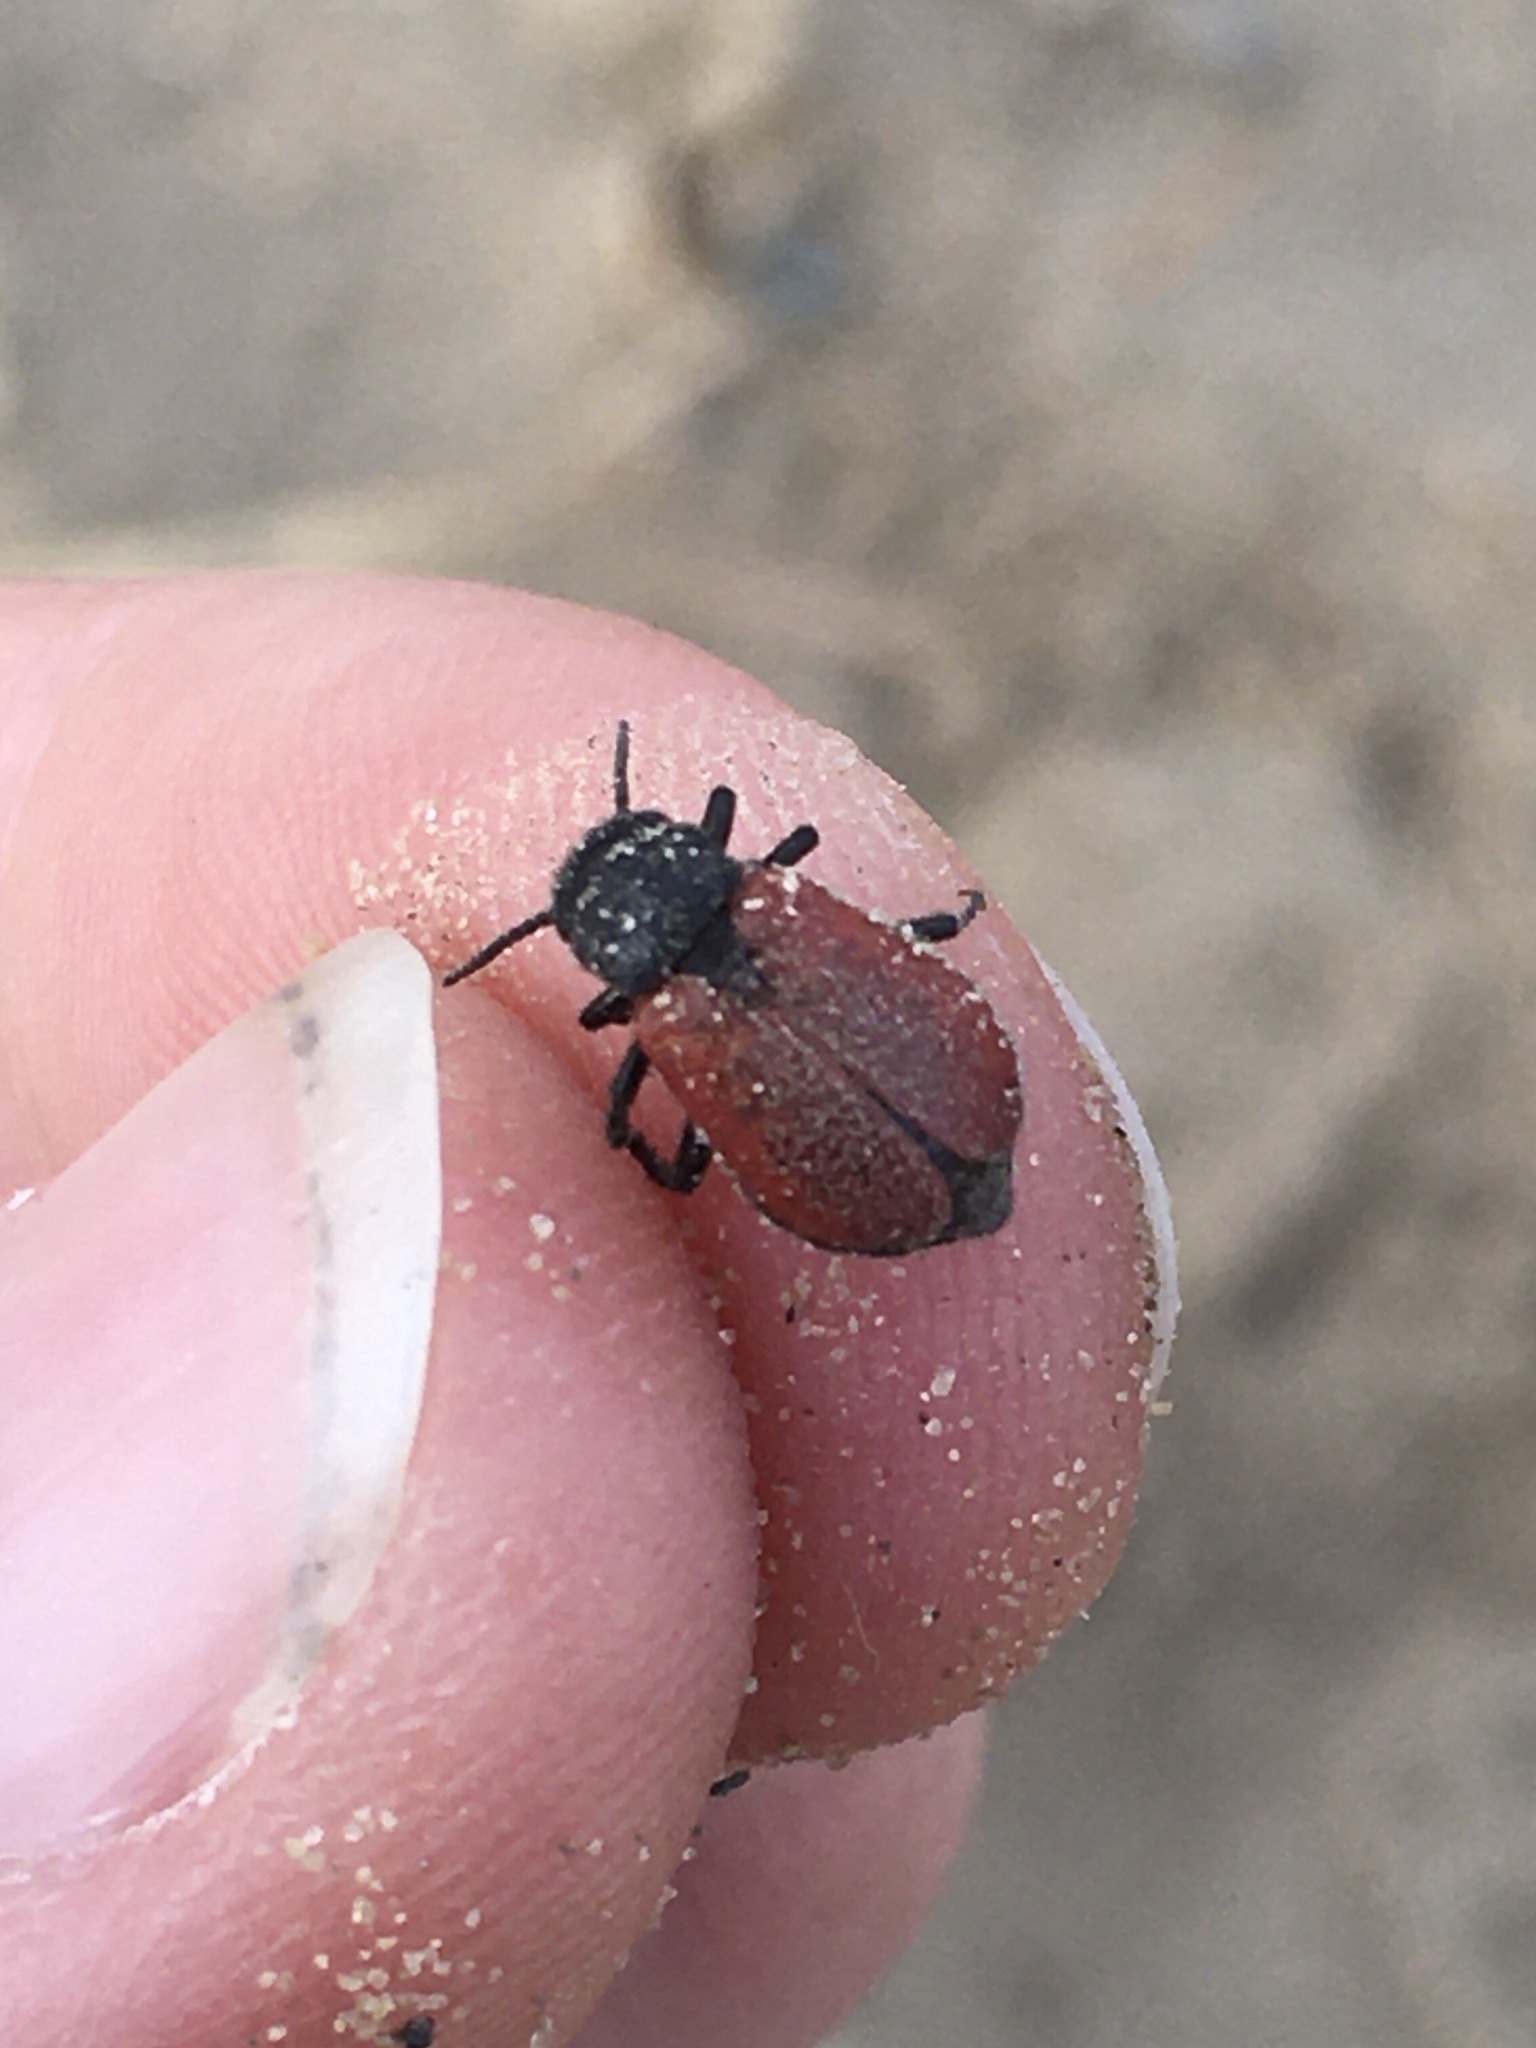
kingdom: Animalia
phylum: Arthropoda
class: Insecta
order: Coleoptera
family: Meloidae
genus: Tricrania
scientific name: Tricrania sanguinipennis
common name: Blood-winged blister beetle
